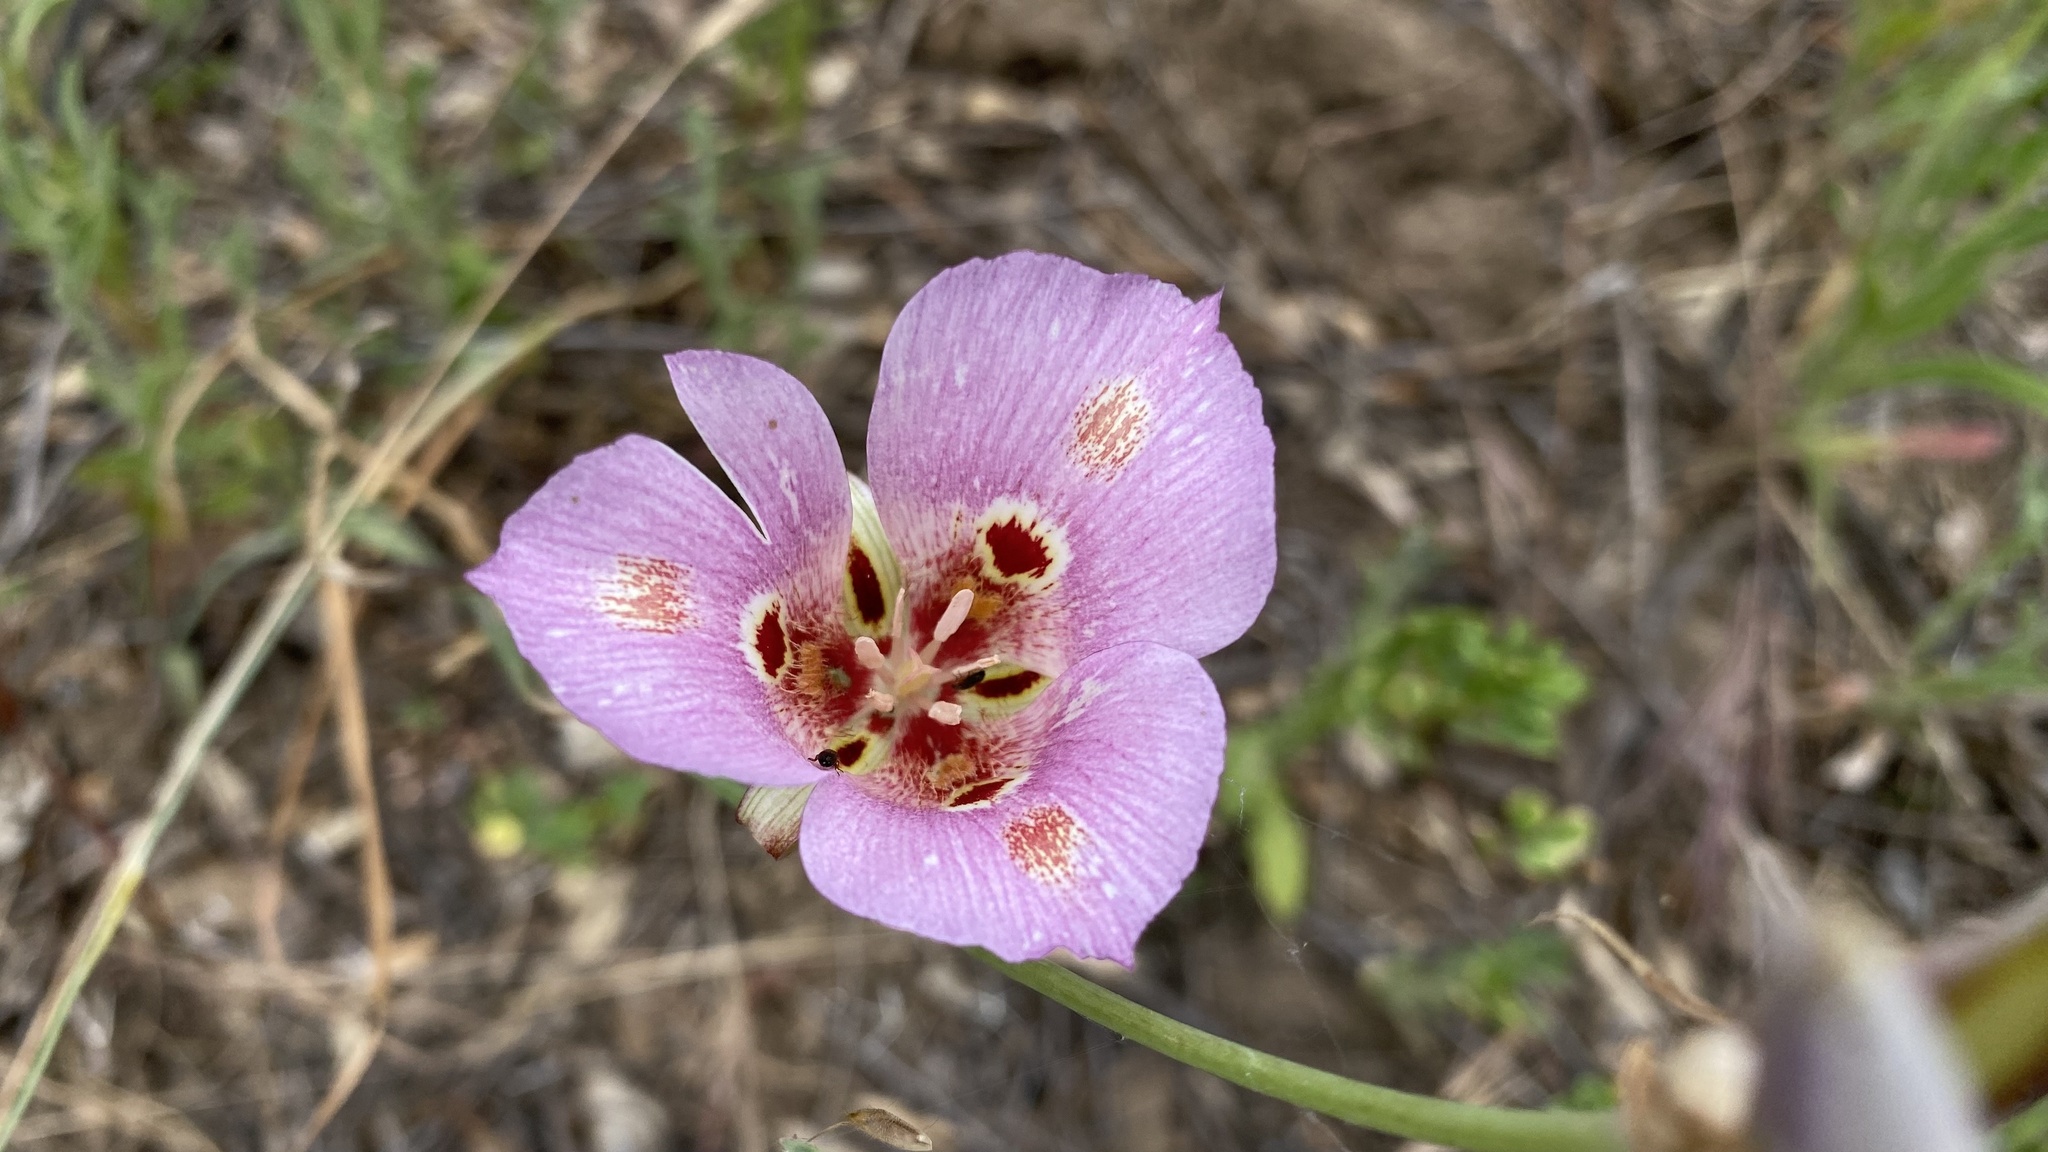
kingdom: Plantae
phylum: Tracheophyta
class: Liliopsida
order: Liliales
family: Liliaceae
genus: Calochortus
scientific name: Calochortus venustus
